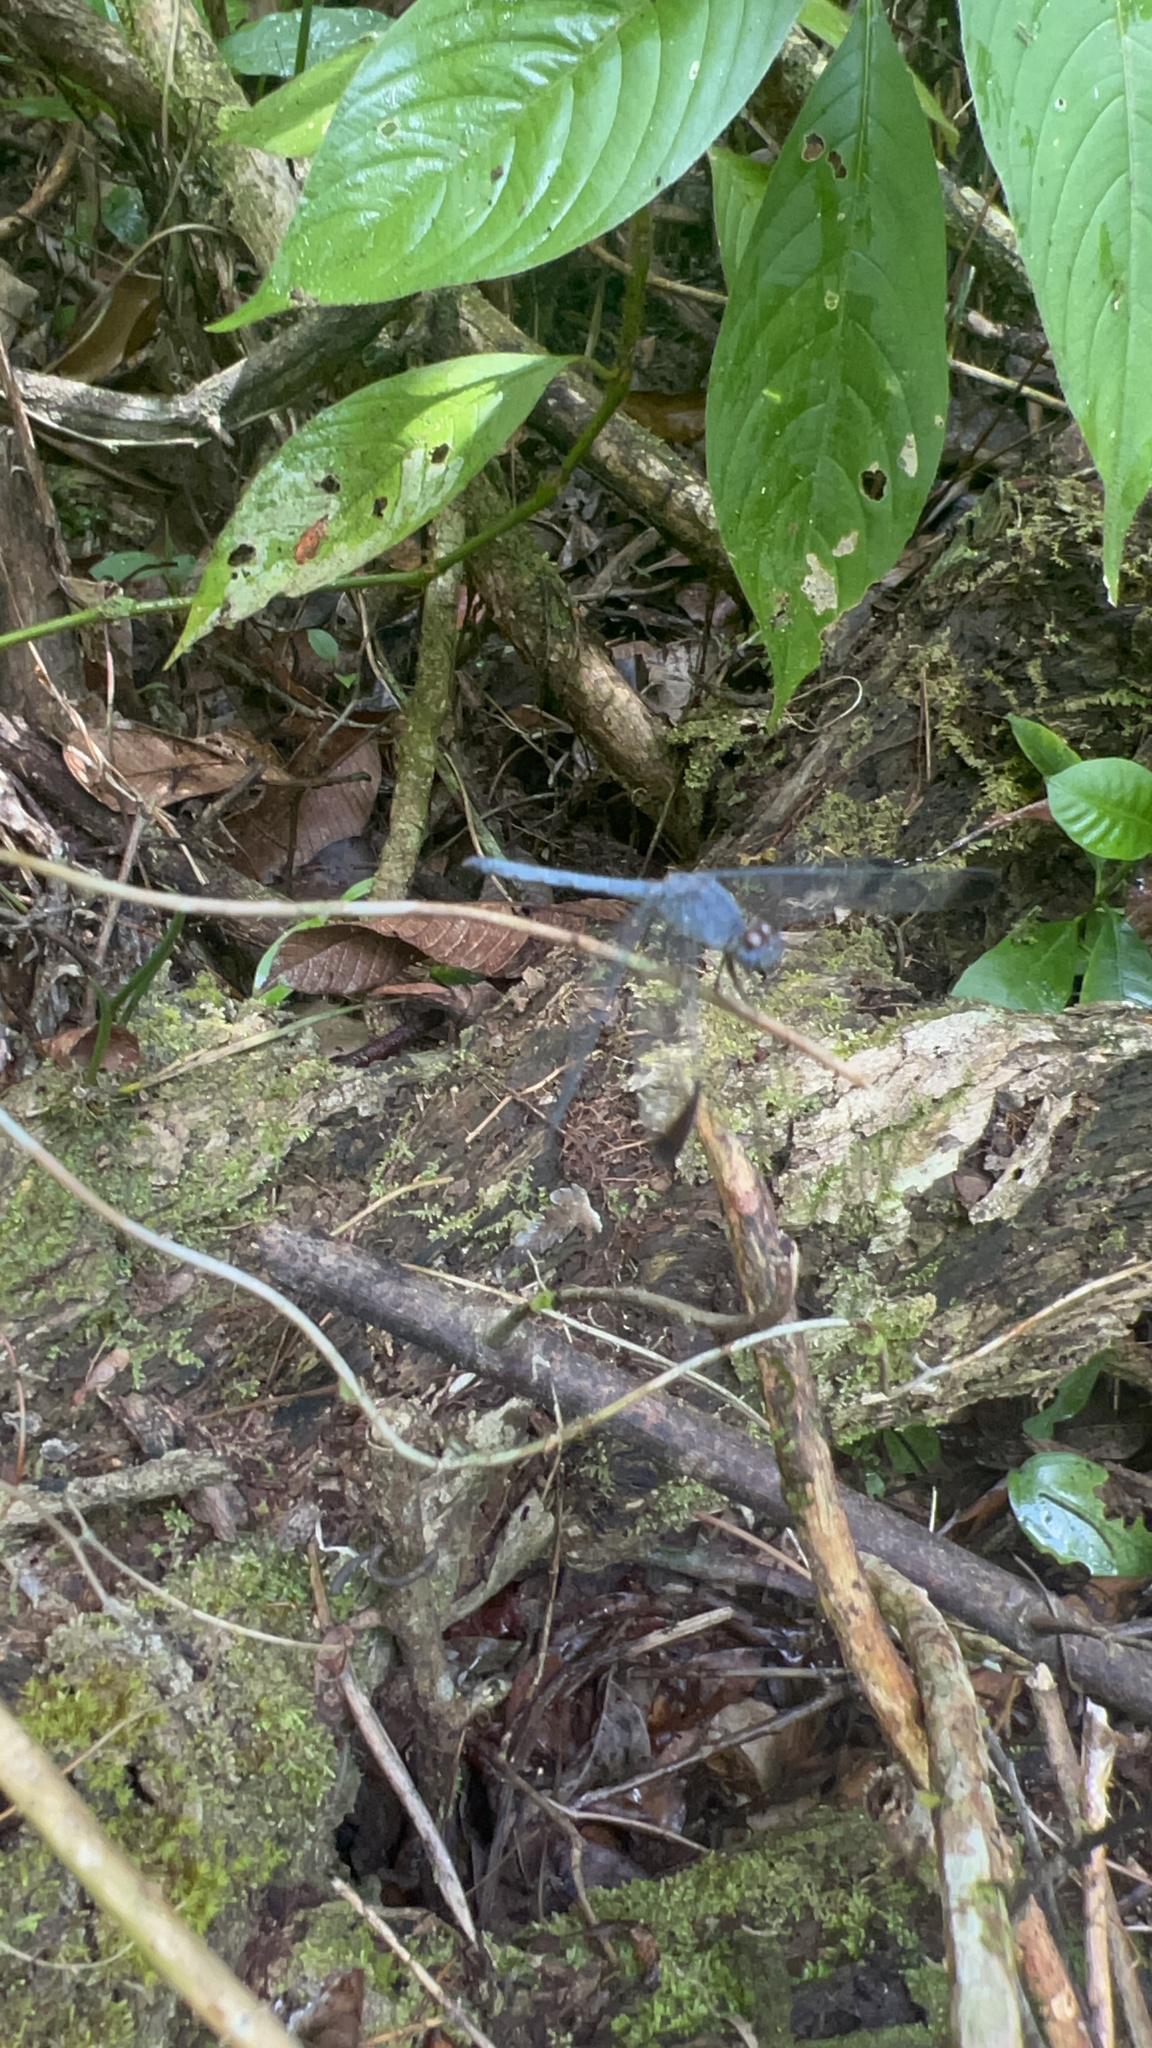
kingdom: Animalia
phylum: Arthropoda
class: Insecta
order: Odonata
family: Libellulidae
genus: Uracis
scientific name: Uracis imbuta
